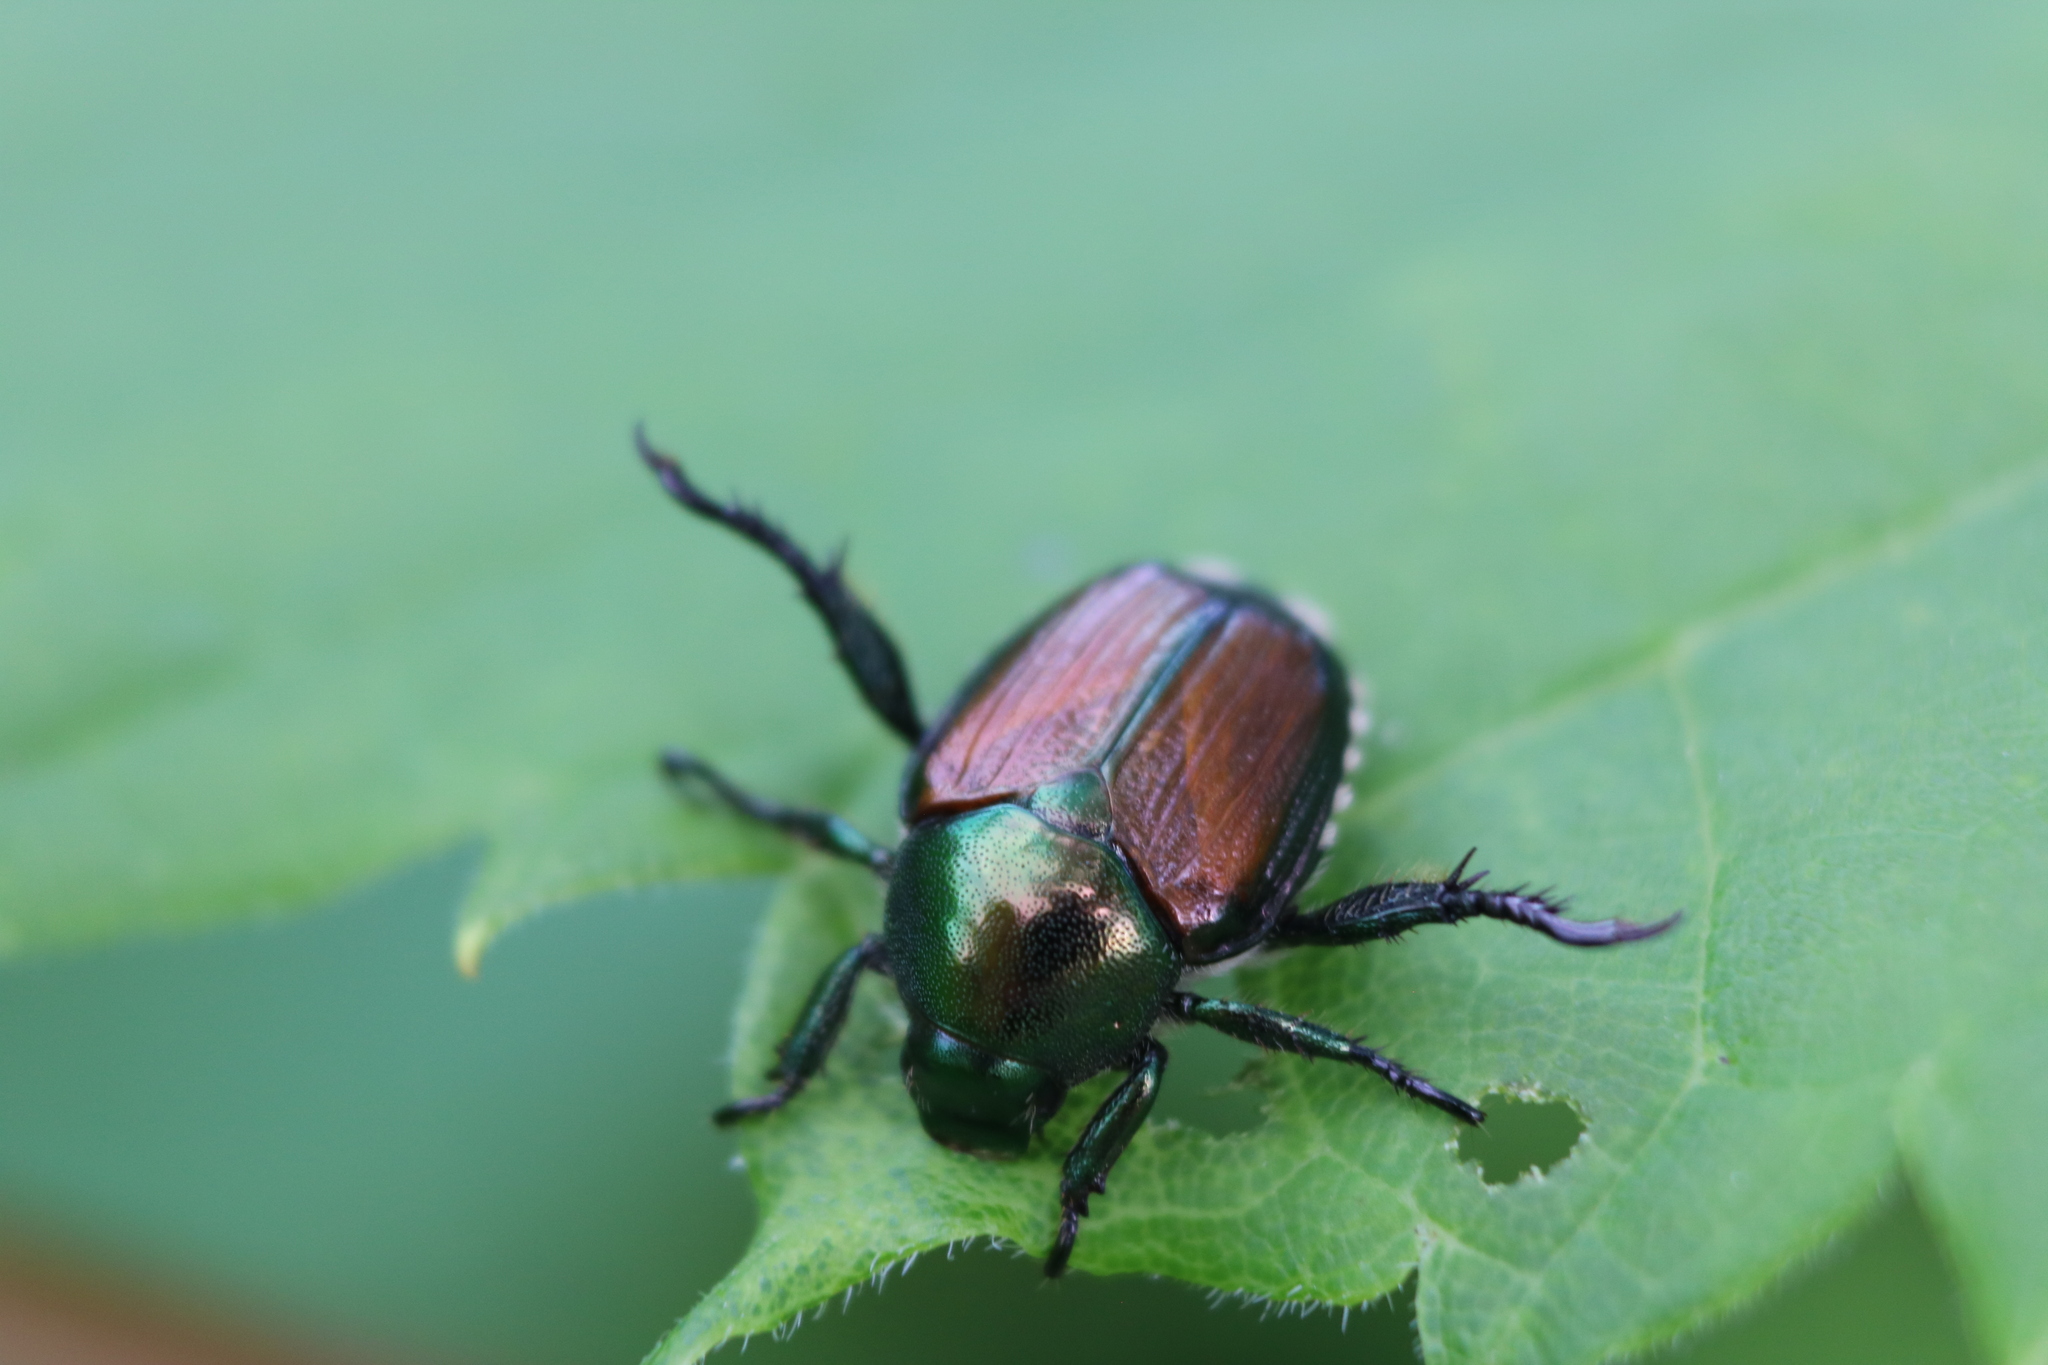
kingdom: Animalia
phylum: Arthropoda
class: Insecta
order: Coleoptera
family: Scarabaeidae
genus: Popillia
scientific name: Popillia japonica
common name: Japanese beetle
